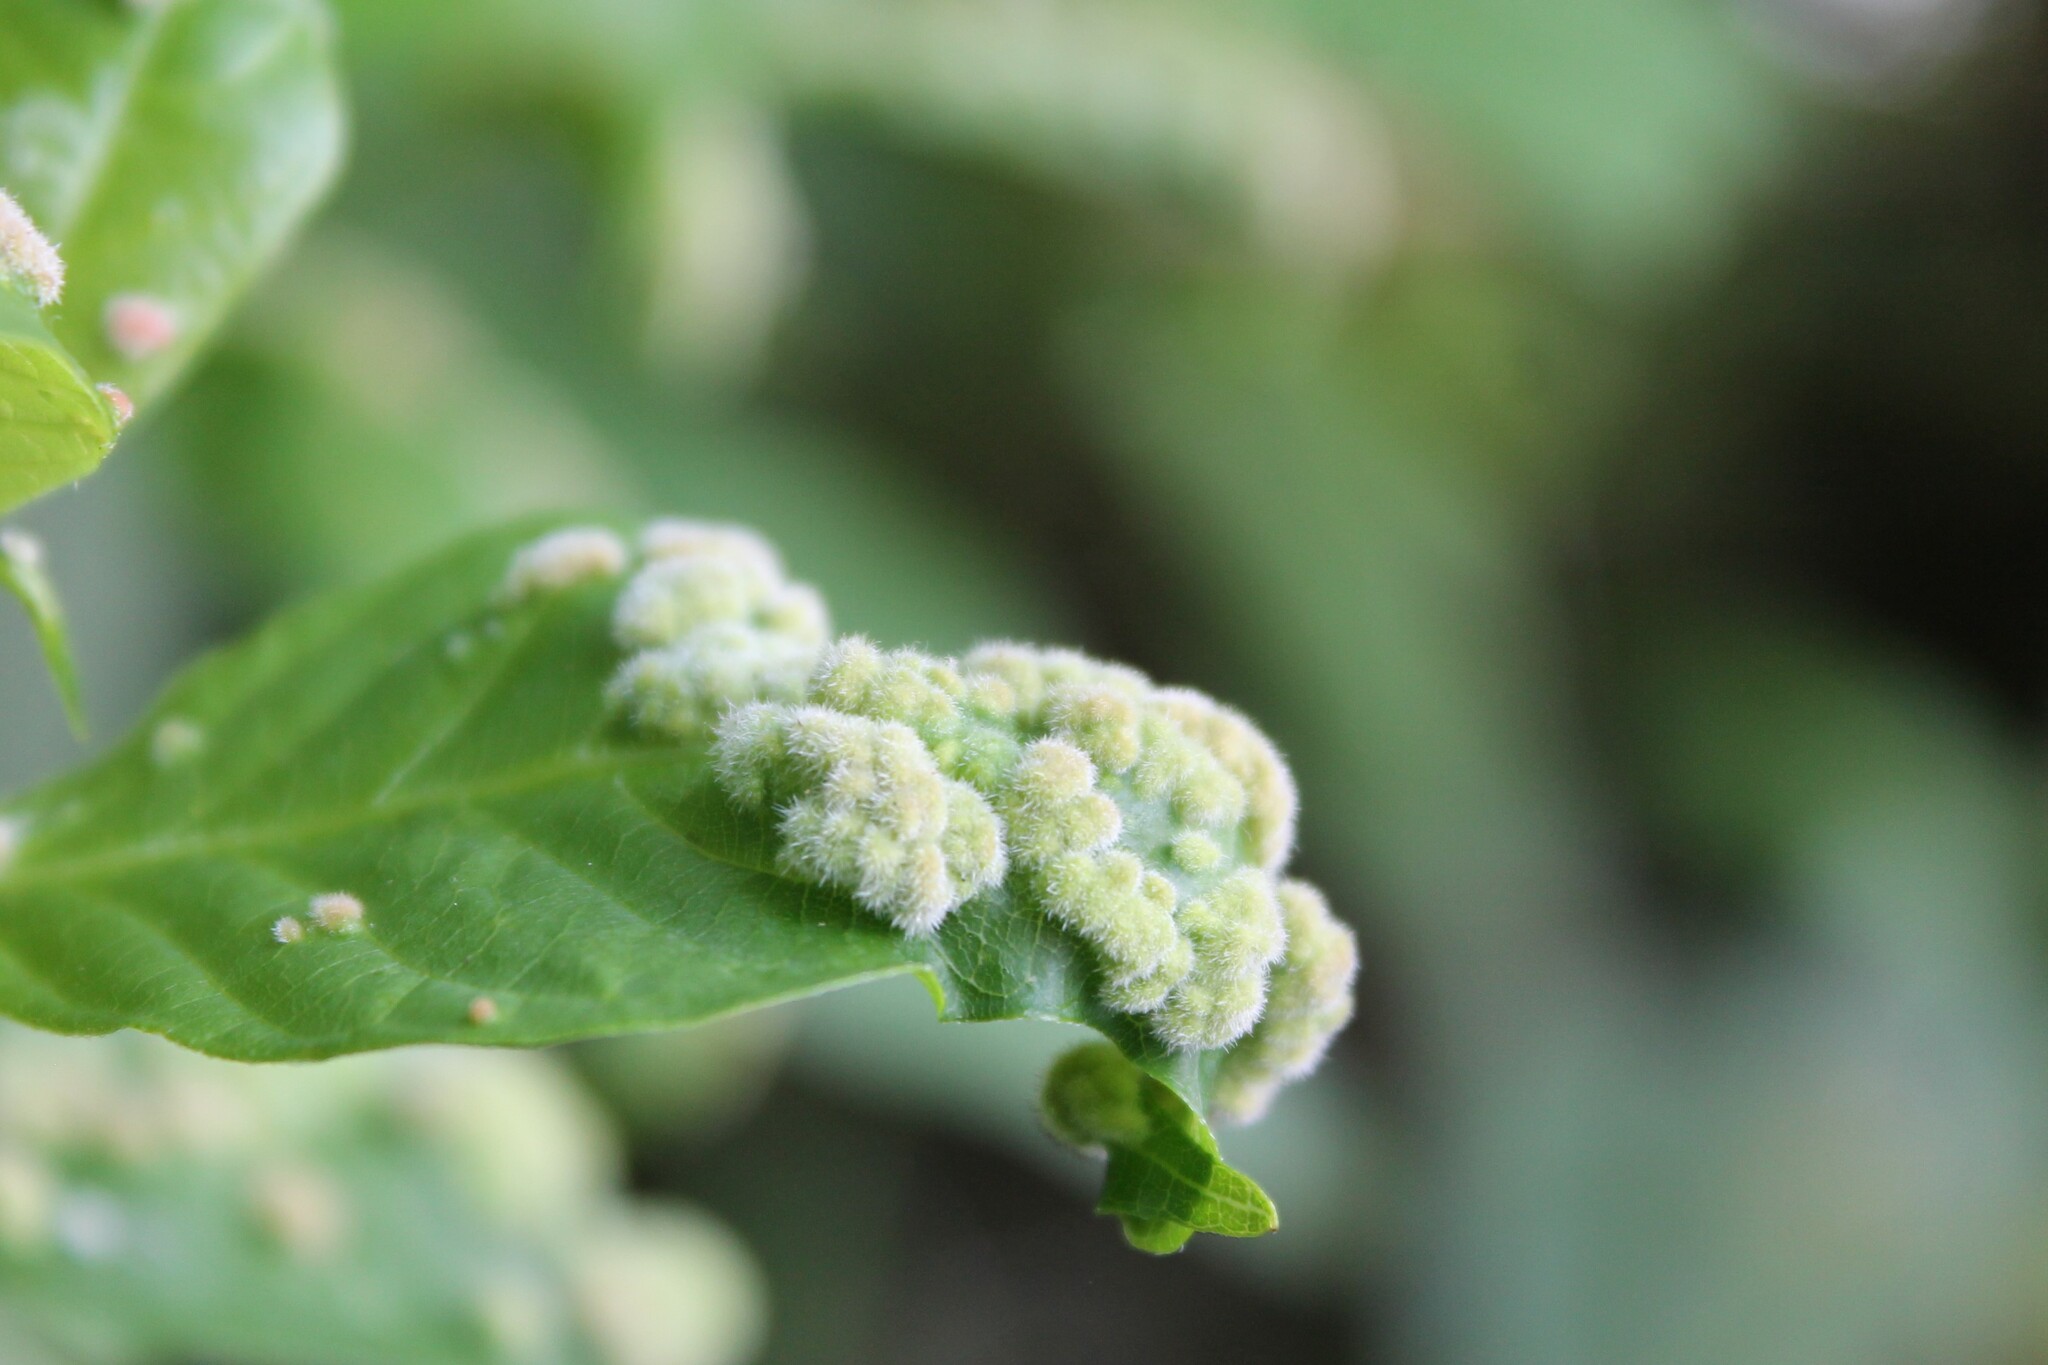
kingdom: Animalia
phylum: Arthropoda
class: Arachnida
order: Trombidiformes
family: Eriophyidae
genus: Aceria
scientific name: Aceria
